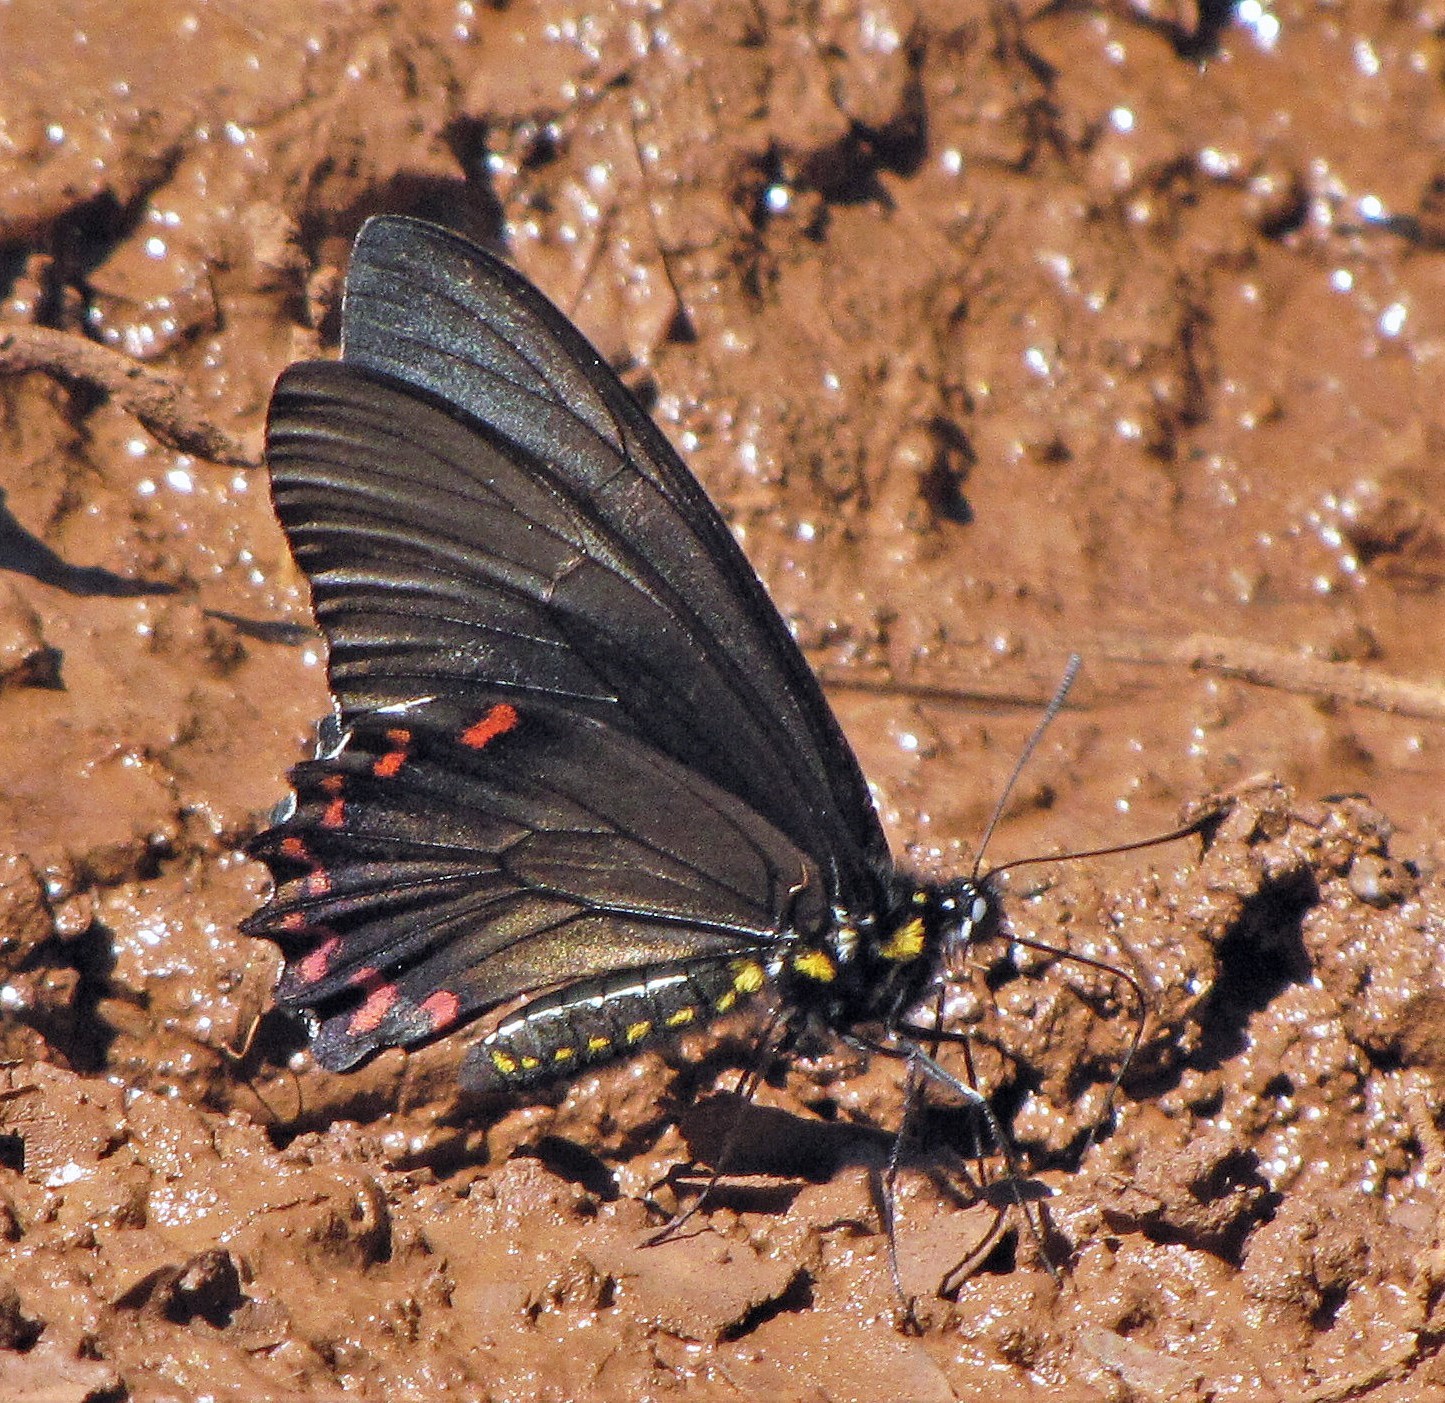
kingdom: Animalia
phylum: Arthropoda
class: Insecta
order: Lepidoptera
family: Papilionidae
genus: Battus
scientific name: Battus polystictus
